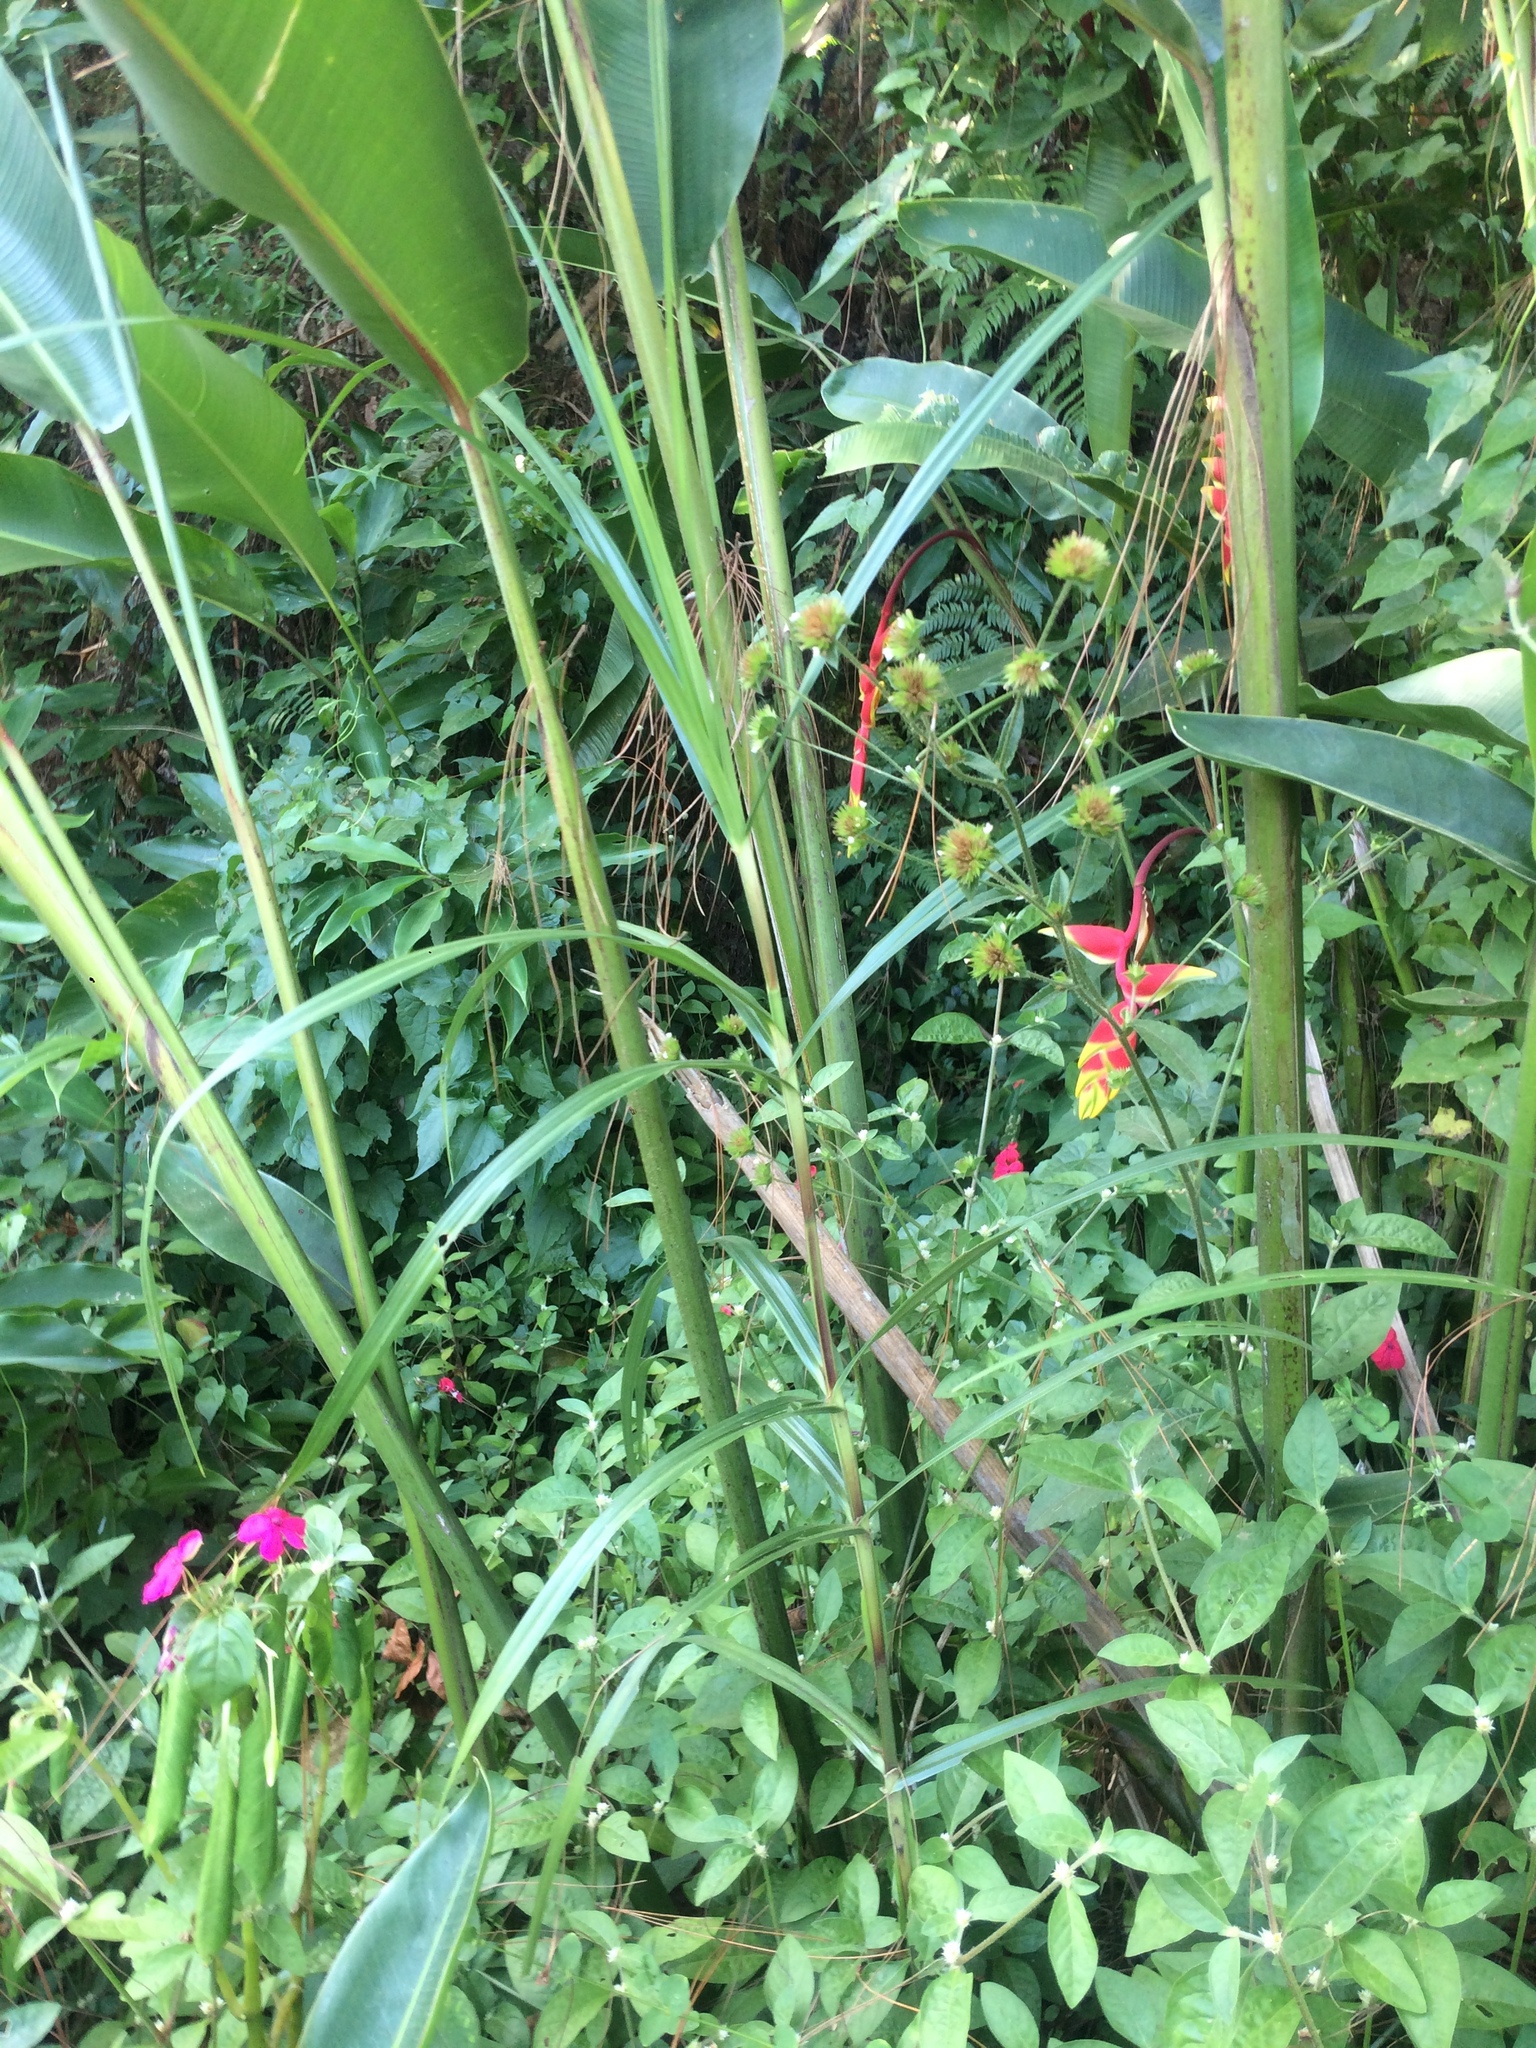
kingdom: Plantae
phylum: Tracheophyta
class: Liliopsida
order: Zingiberales
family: Heliconiaceae
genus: Heliconia
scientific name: Heliconia rostrata
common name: False bird of paradise
